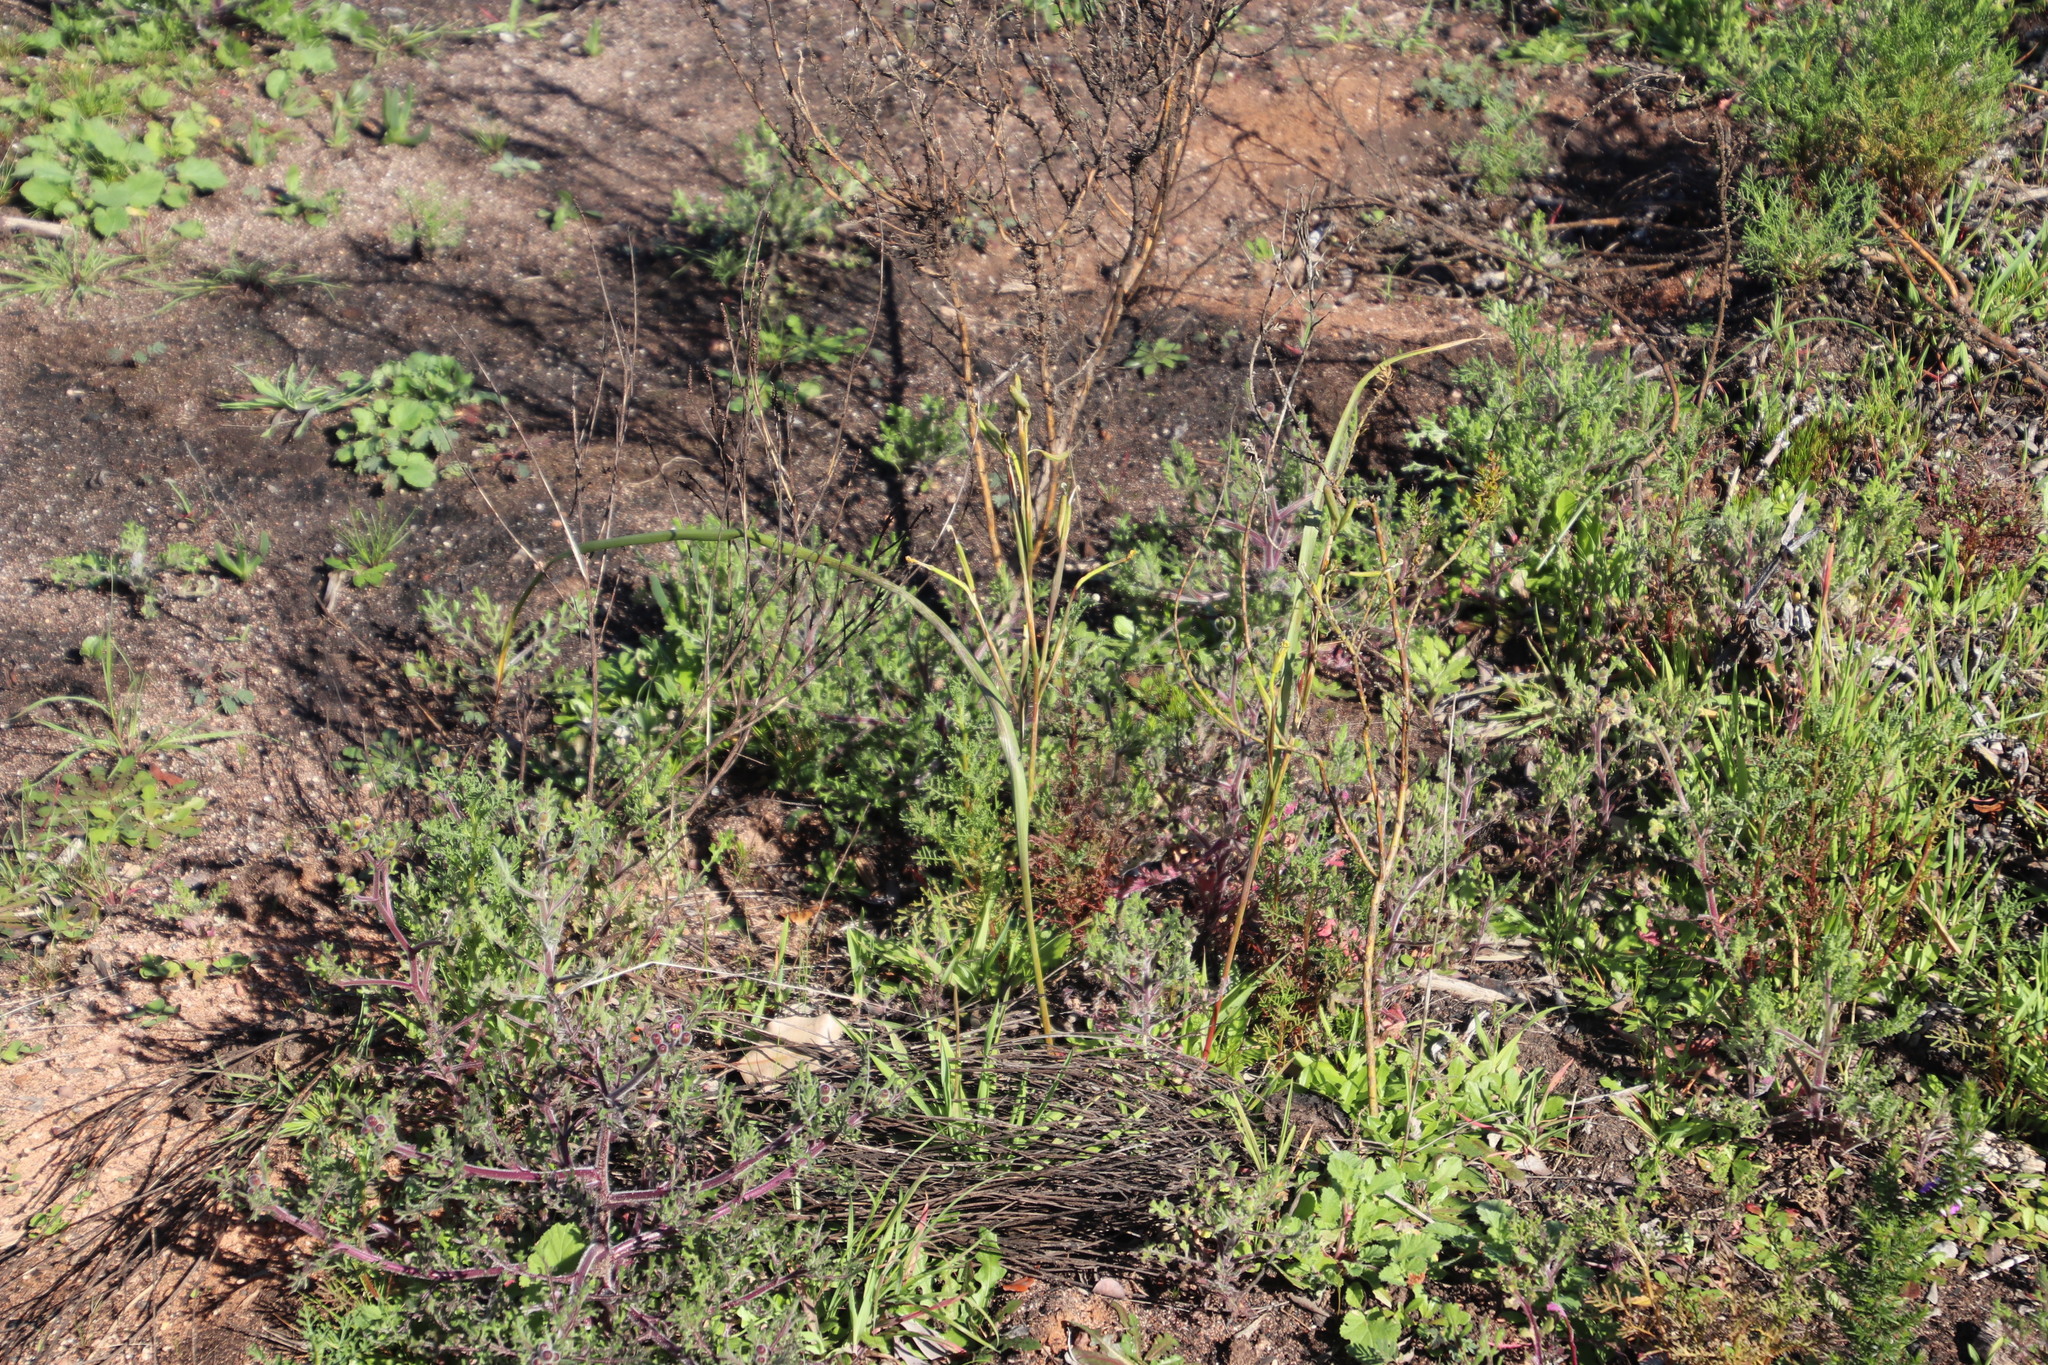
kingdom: Plantae
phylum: Tracheophyta
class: Liliopsida
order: Asparagales
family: Iridaceae
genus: Moraea
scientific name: Moraea collina
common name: Cape-tulip
